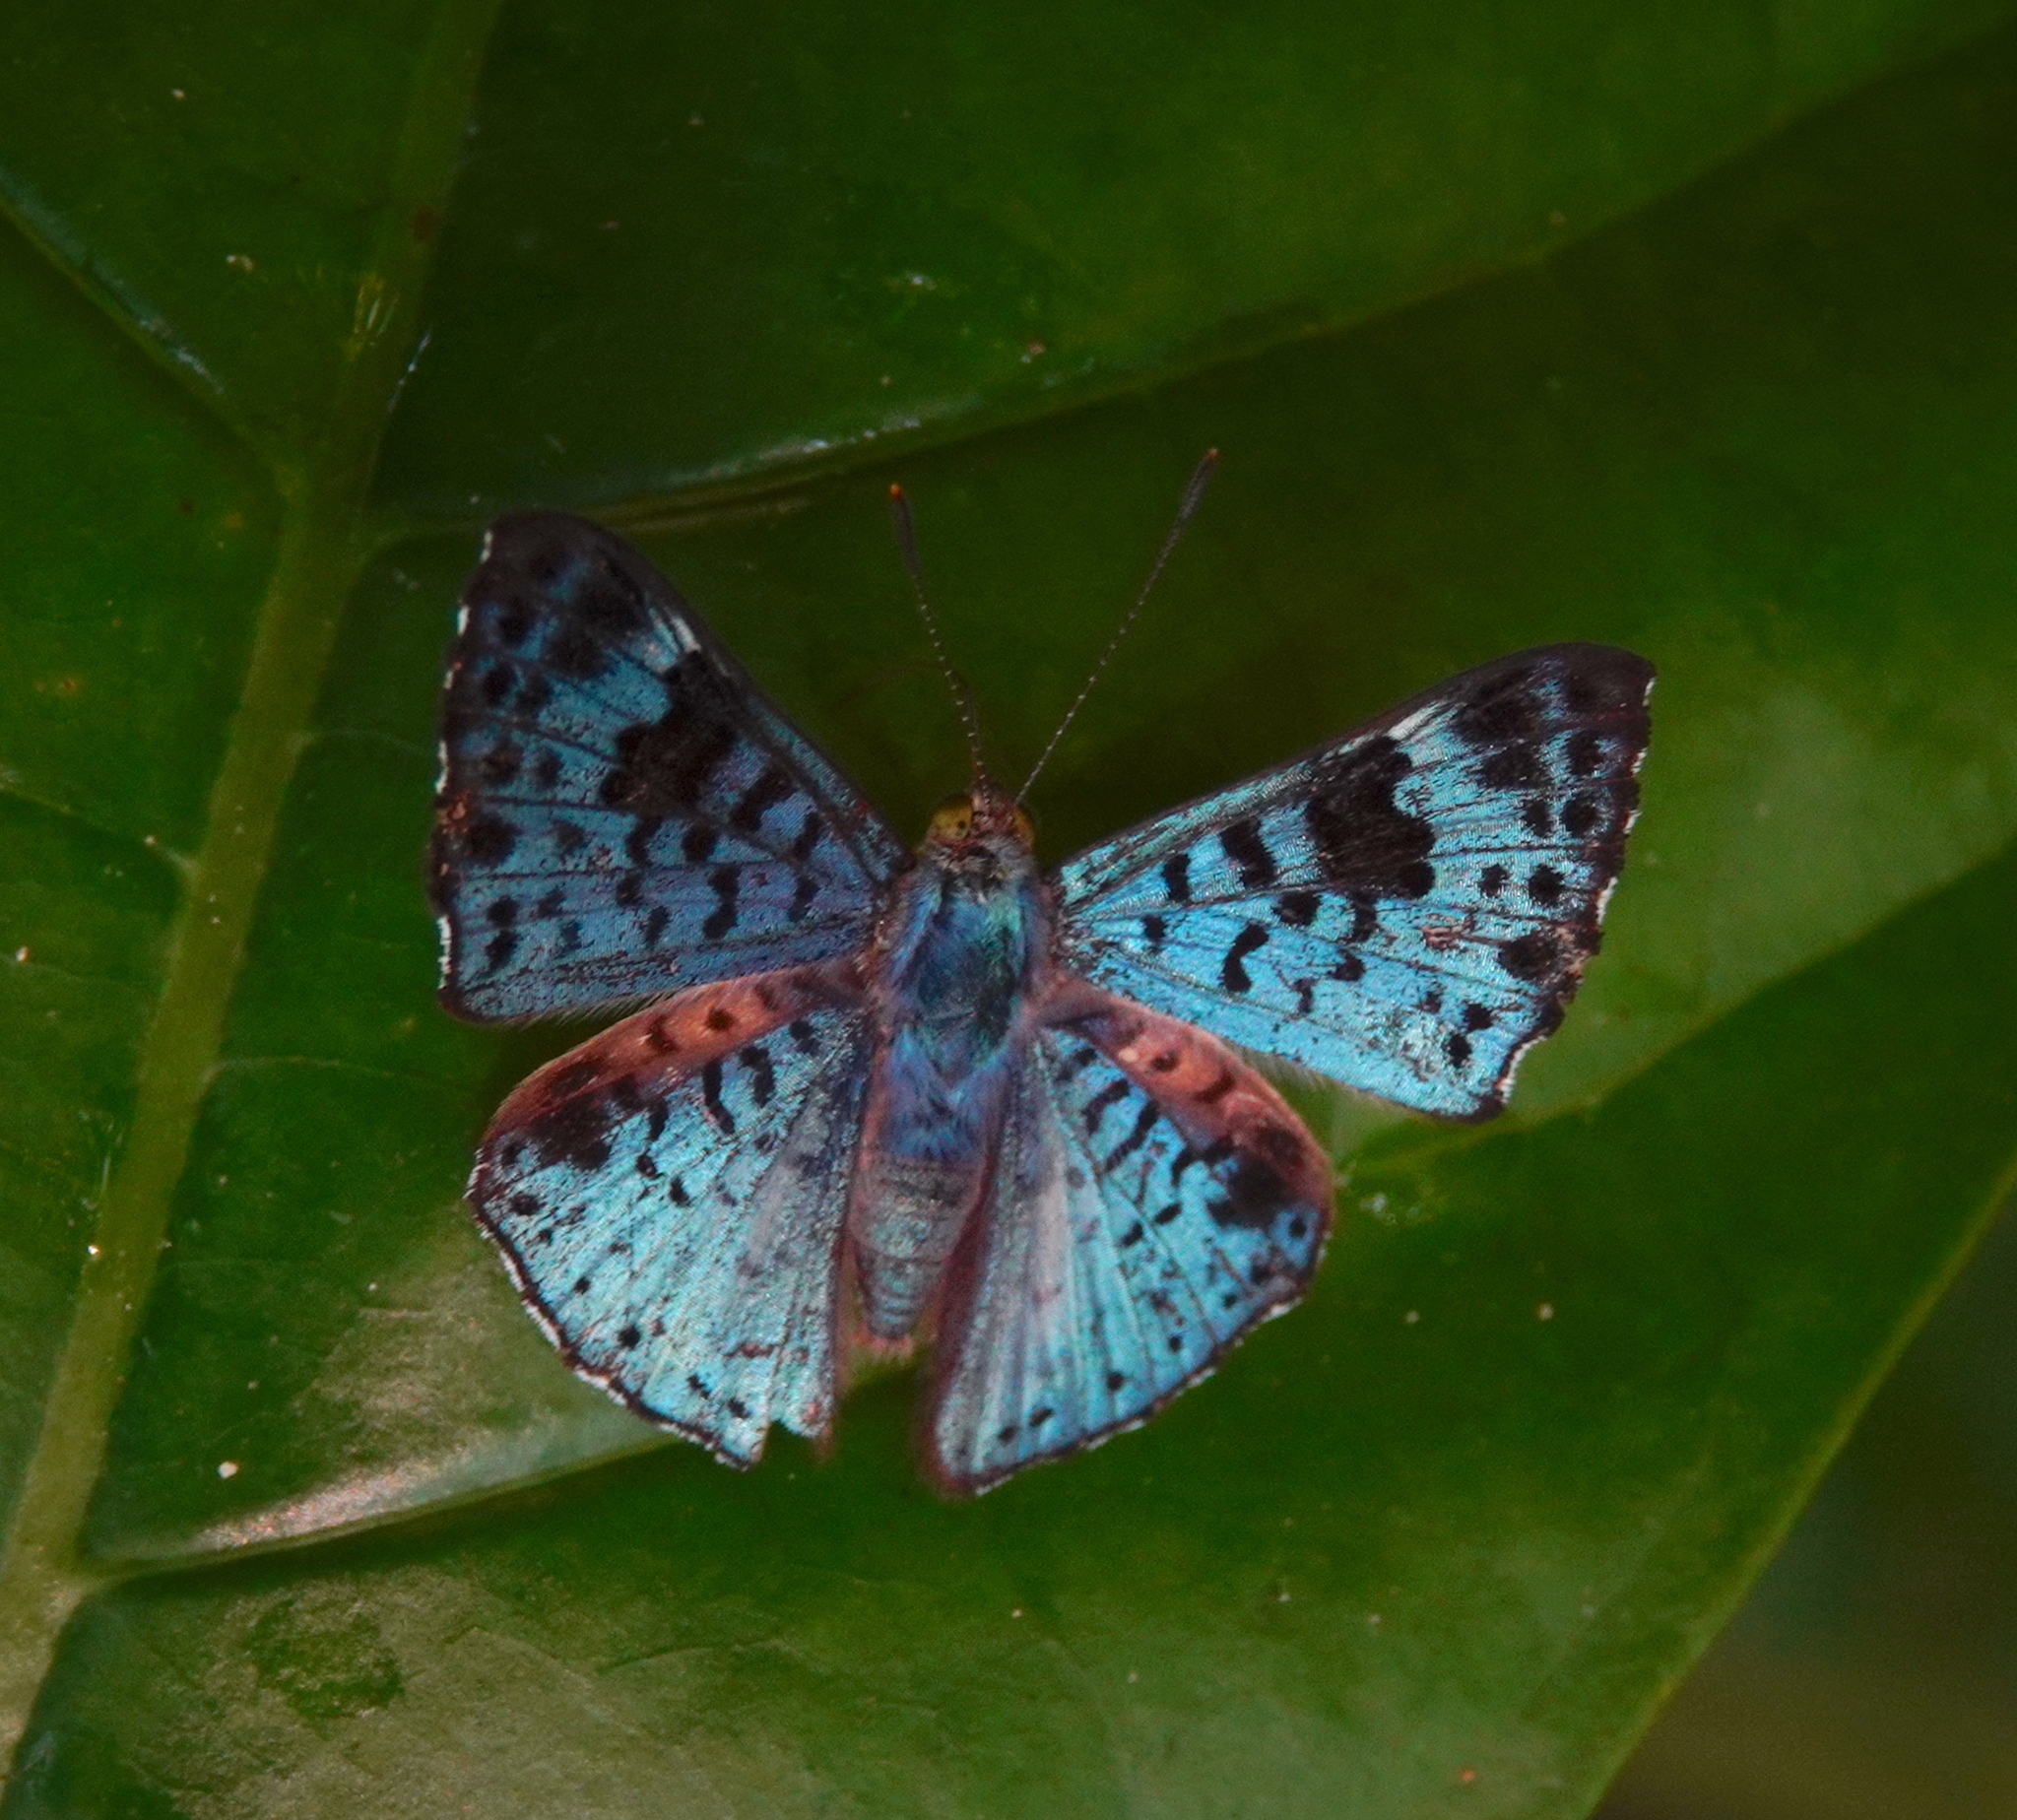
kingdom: Animalia
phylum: Arthropoda
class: Insecta
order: Lepidoptera
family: Riodinidae
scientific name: Riodinidae
